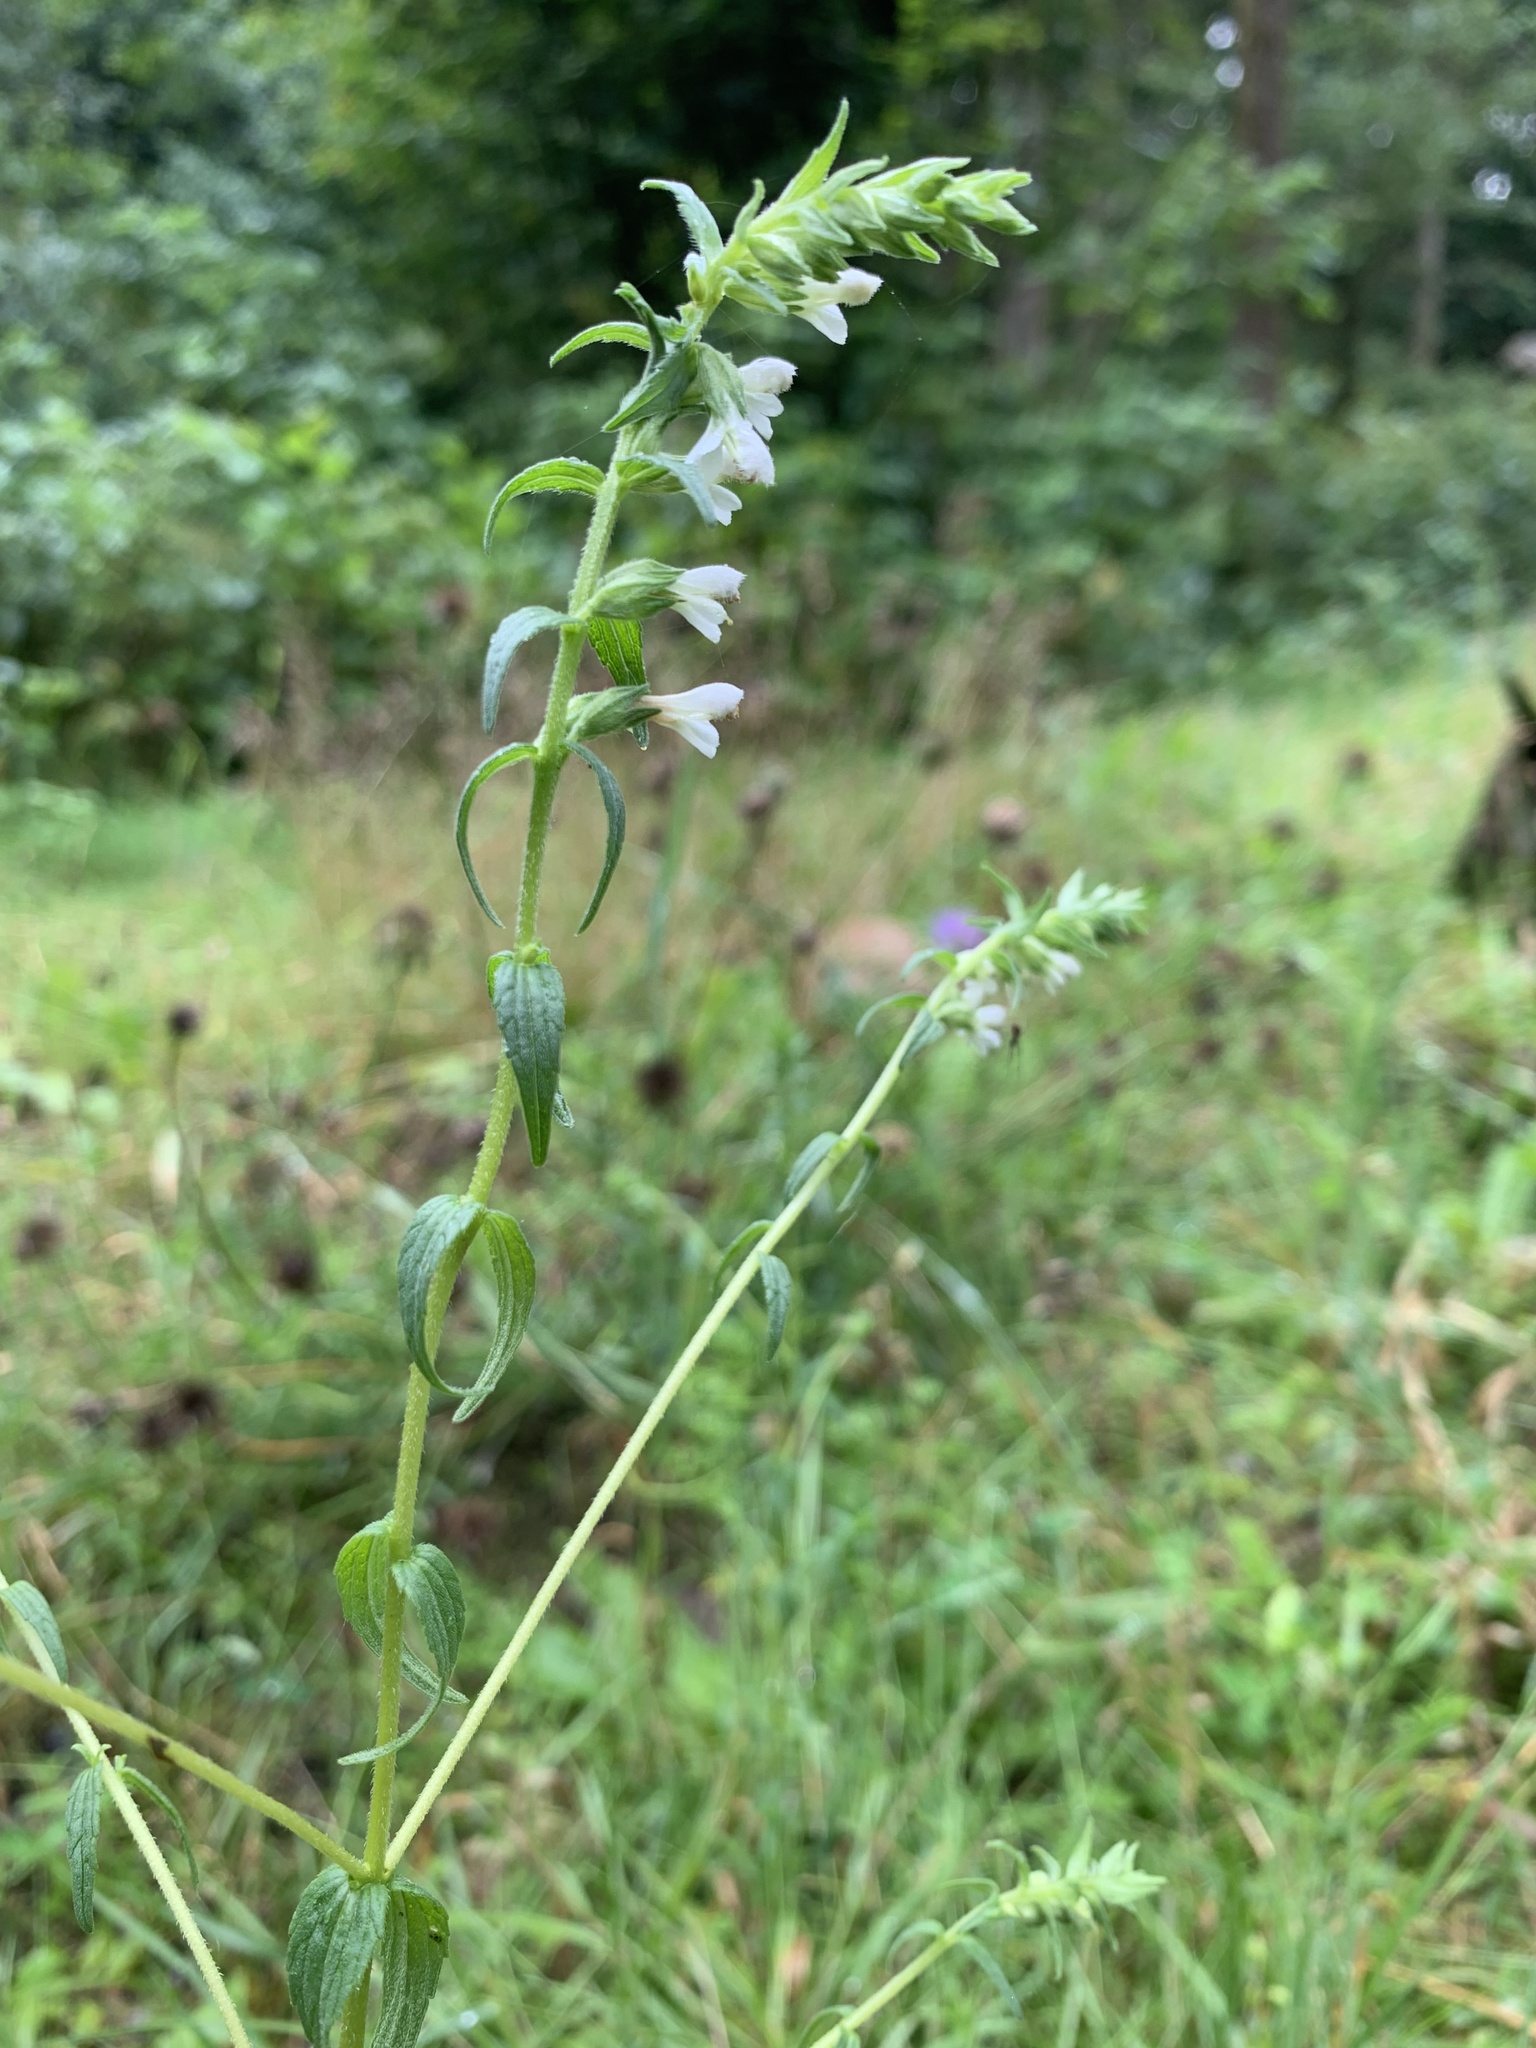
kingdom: Plantae
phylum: Tracheophyta
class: Magnoliopsida
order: Lamiales
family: Orobanchaceae
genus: Odontites
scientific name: Odontites vulgaris
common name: Broomrape
